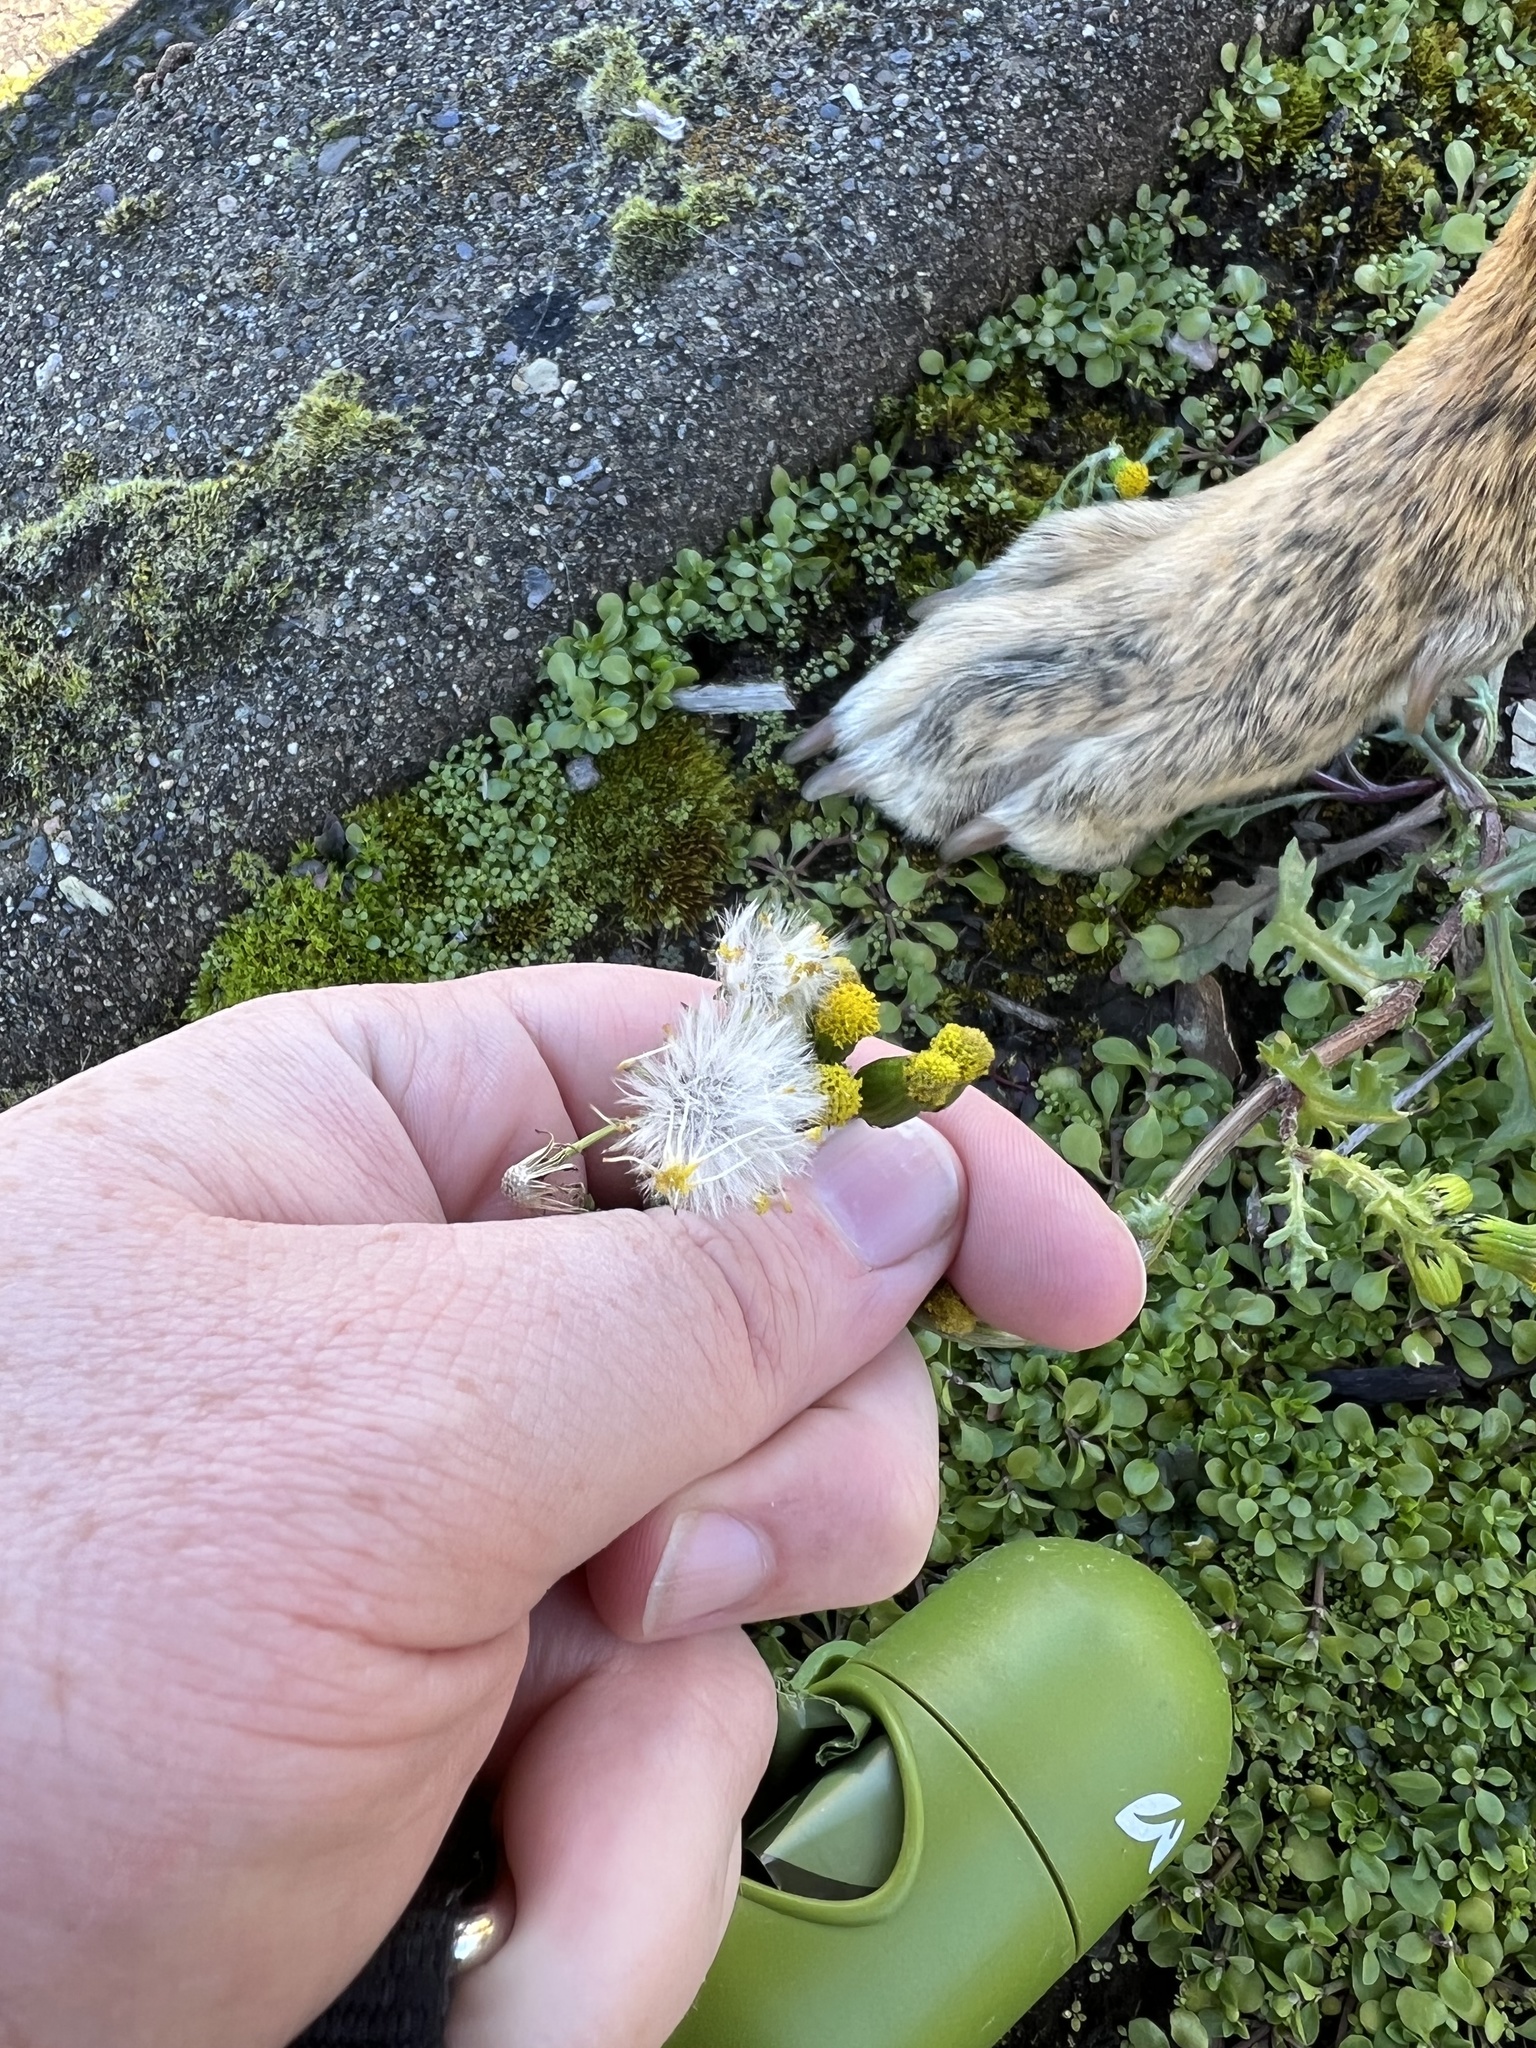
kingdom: Plantae
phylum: Tracheophyta
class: Magnoliopsida
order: Asterales
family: Asteraceae
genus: Senecio
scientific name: Senecio vulgaris
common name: Old-man-in-the-spring
